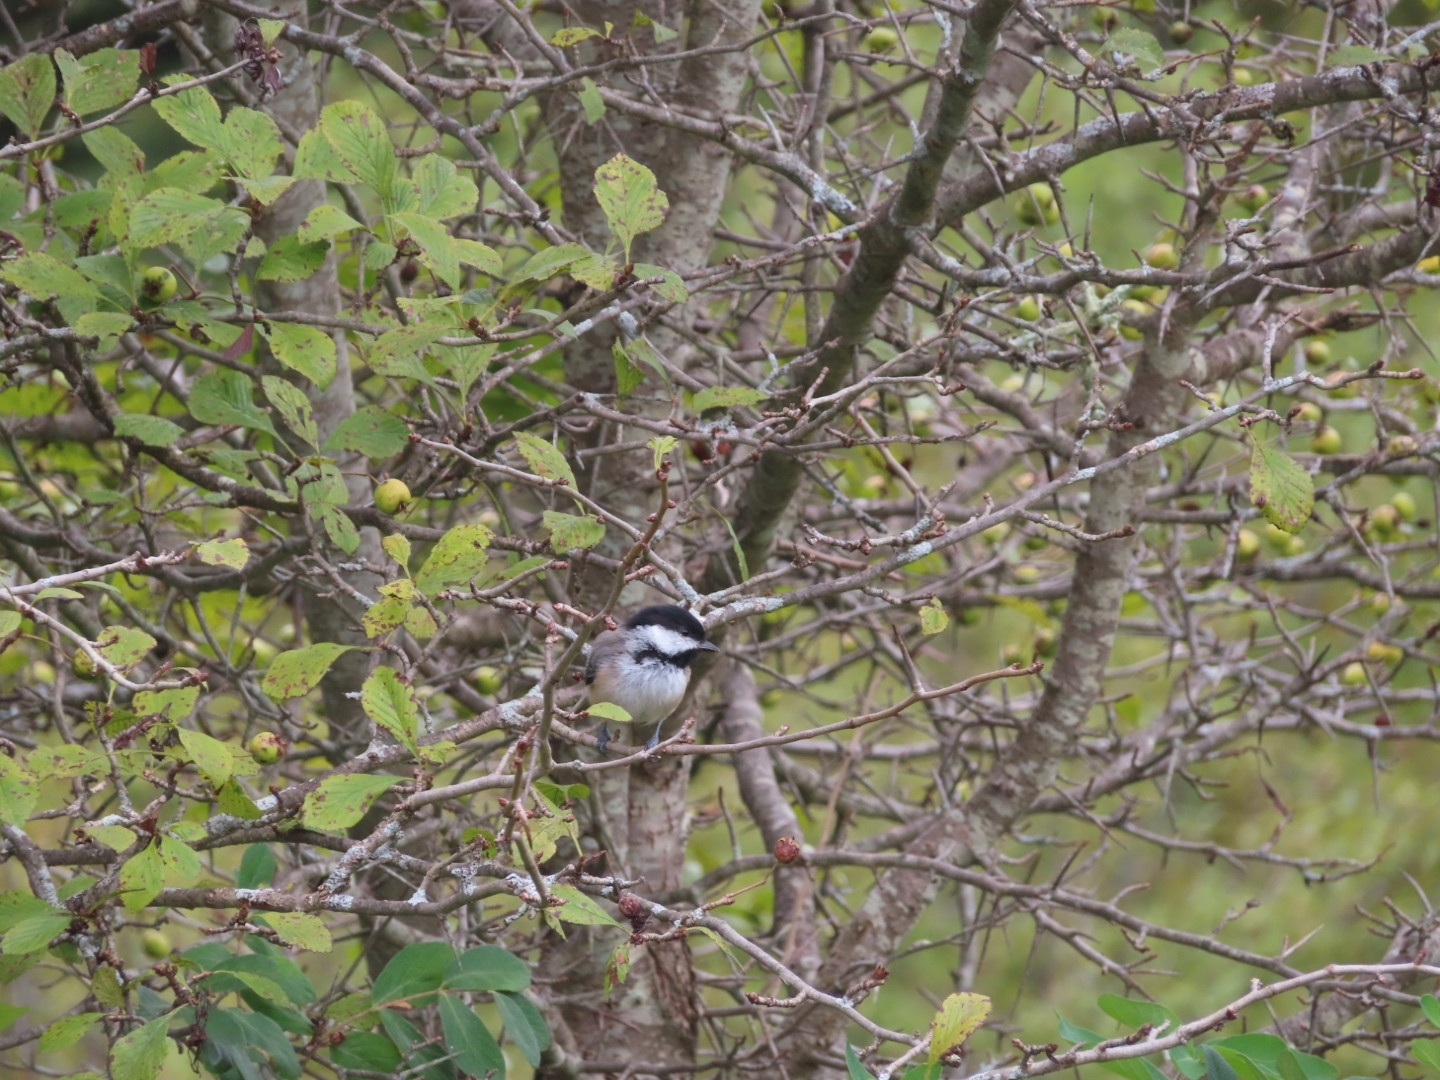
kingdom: Animalia
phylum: Chordata
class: Aves
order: Passeriformes
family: Paridae
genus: Poecile
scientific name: Poecile atricapillus
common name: Black-capped chickadee
